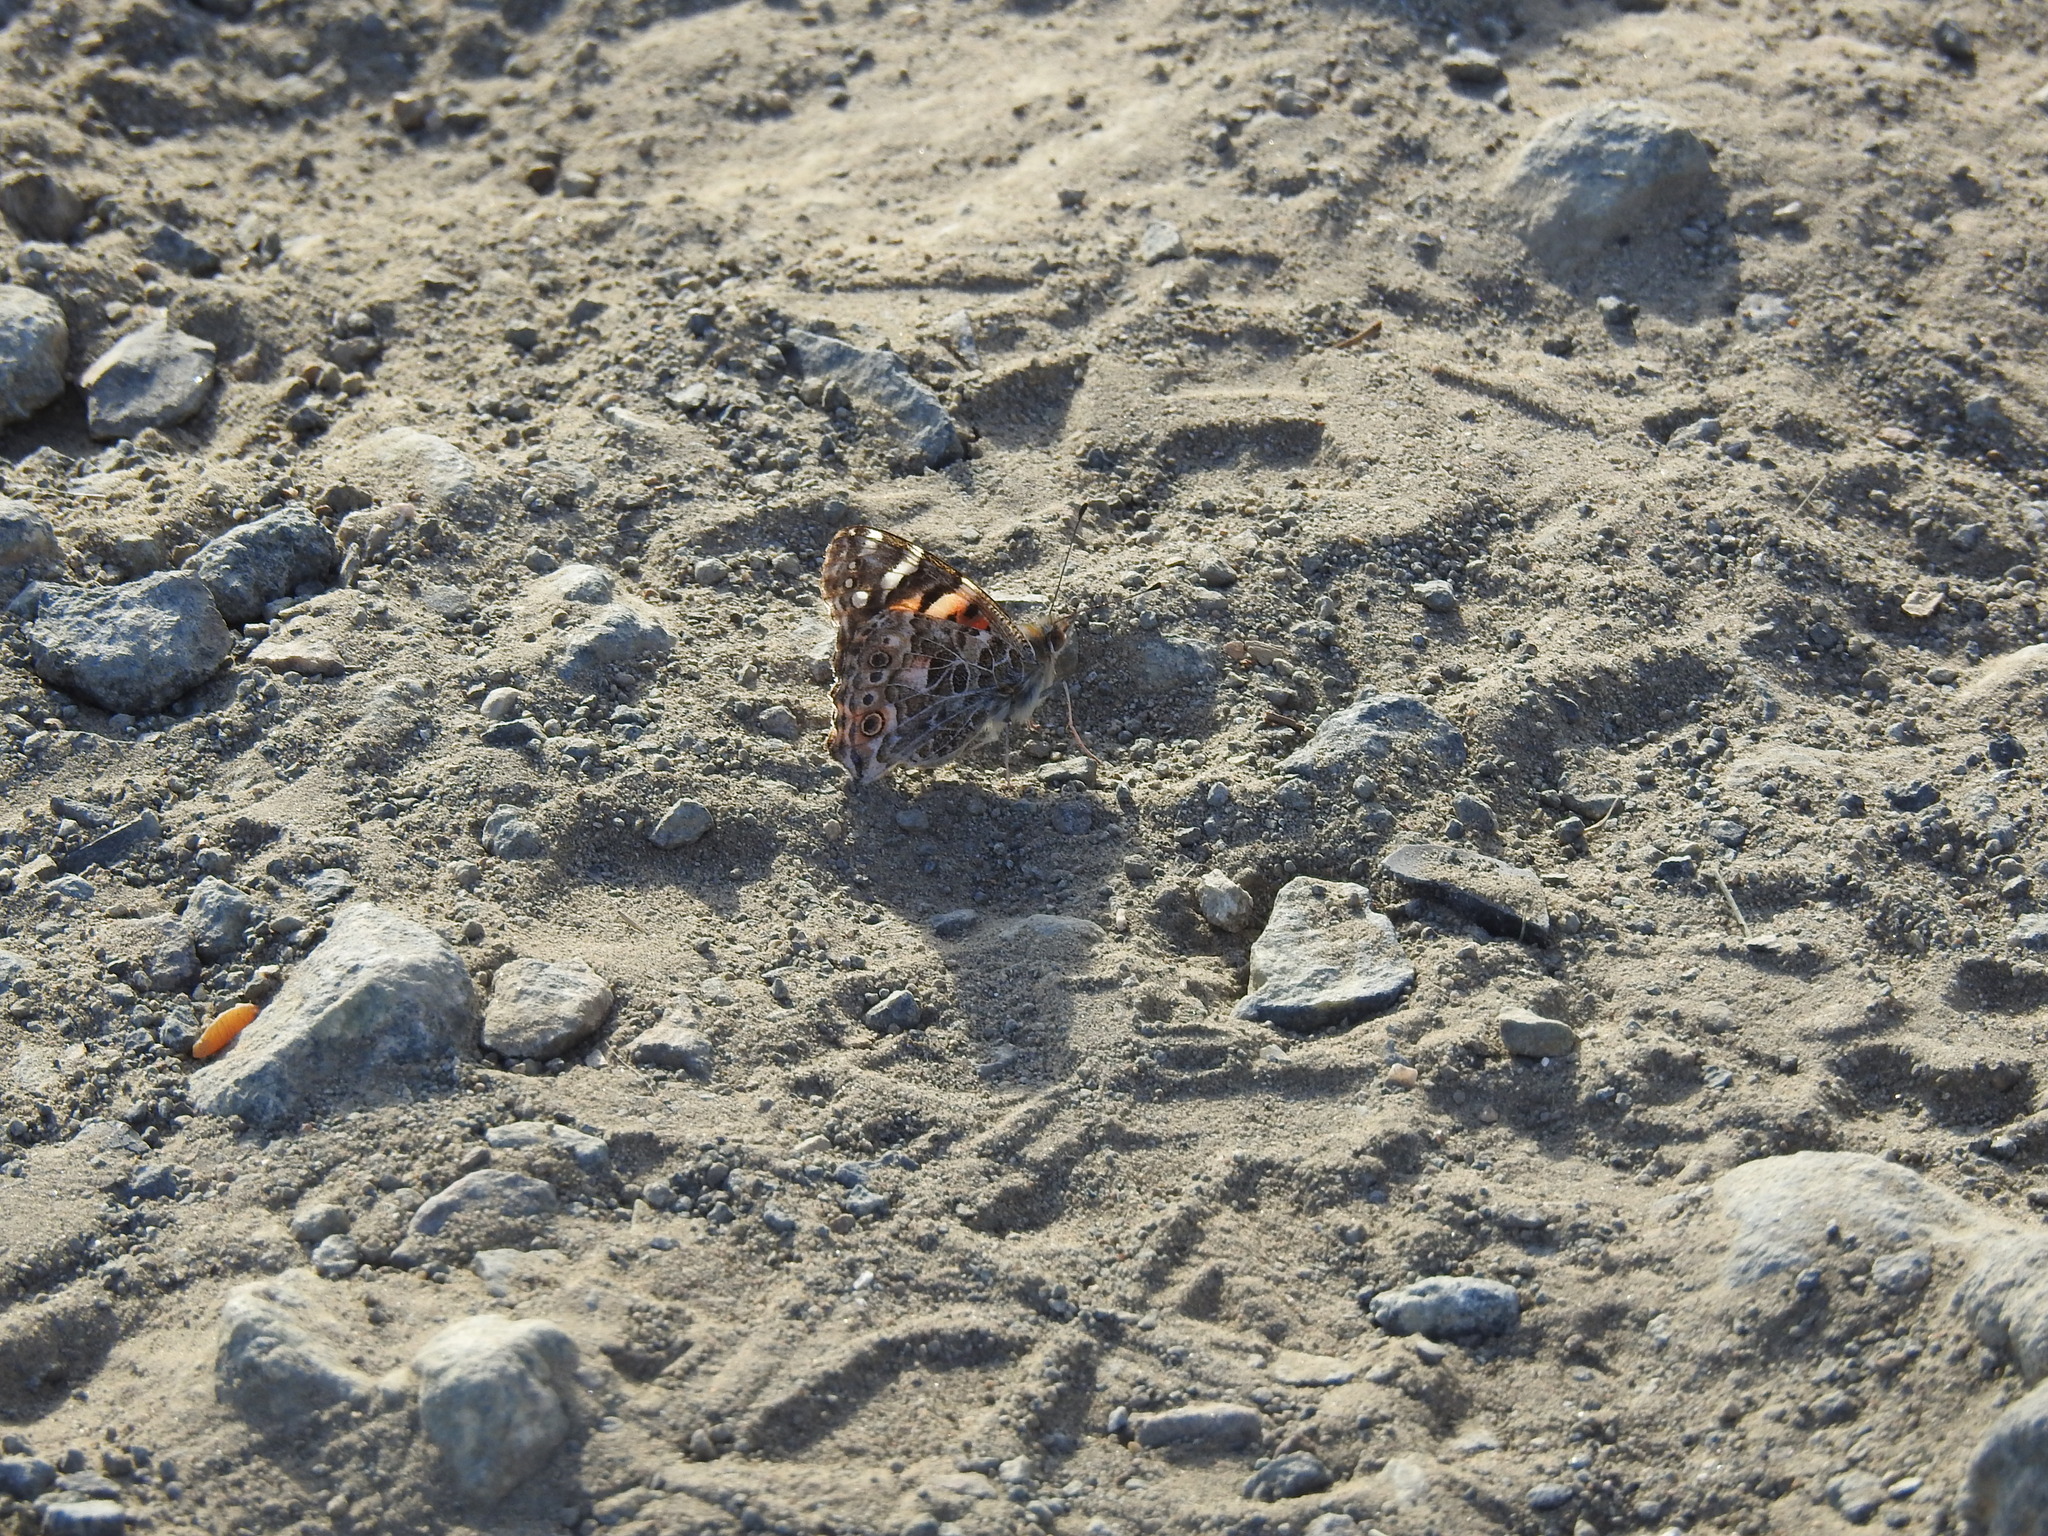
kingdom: Animalia
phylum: Arthropoda
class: Insecta
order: Lepidoptera
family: Nymphalidae
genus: Vanessa
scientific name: Vanessa cardui
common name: Painted lady
